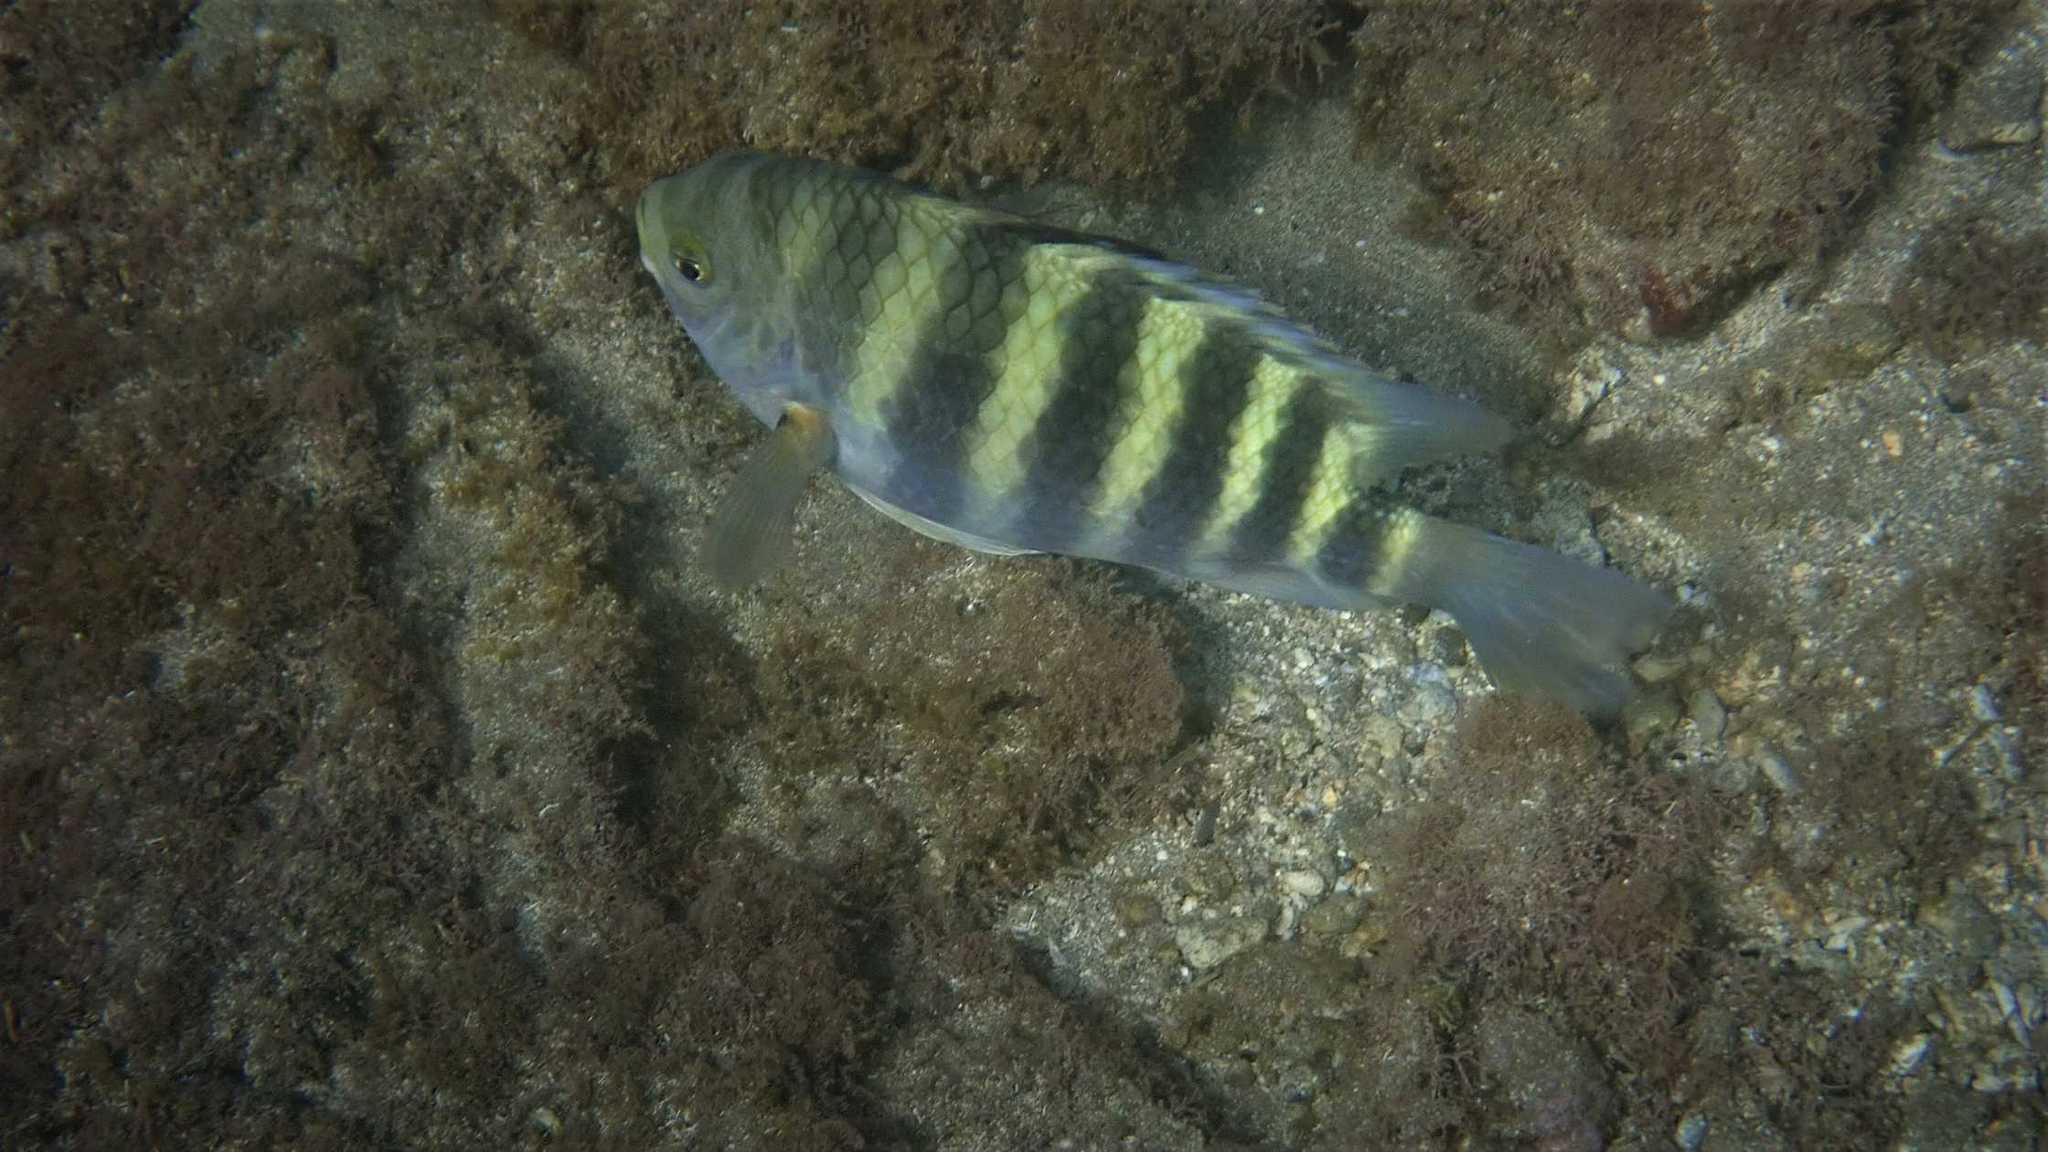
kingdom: Animalia
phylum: Chordata
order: Perciformes
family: Pomacentridae
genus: Abudefduf
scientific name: Abudefduf septemfasciatus
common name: Banded sergeant
